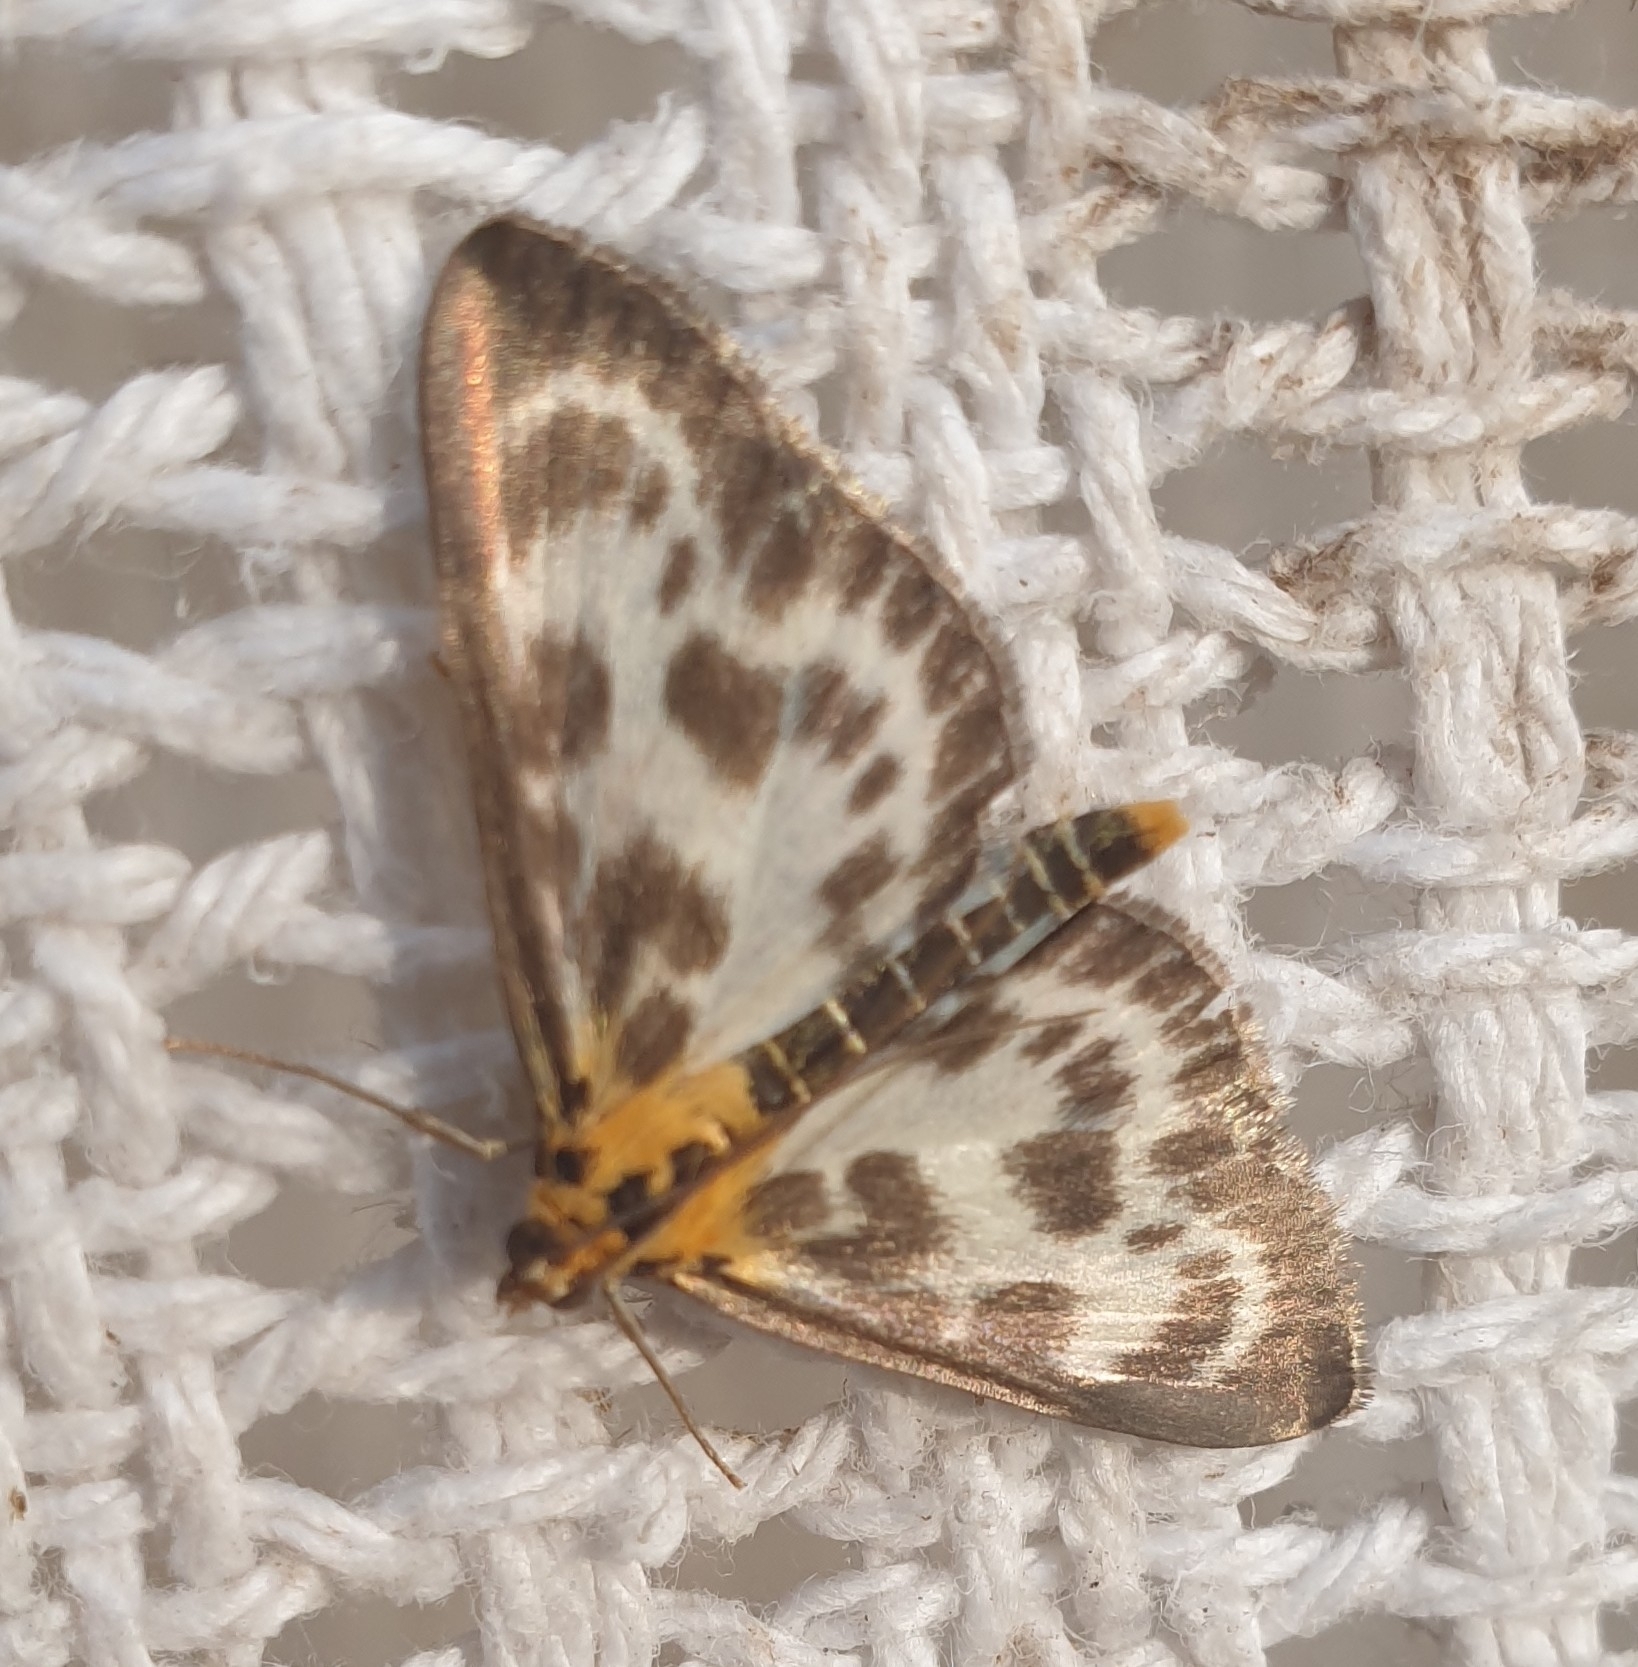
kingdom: Animalia
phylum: Arthropoda
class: Insecta
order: Lepidoptera
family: Crambidae
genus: Anania
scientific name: Anania hortulata
